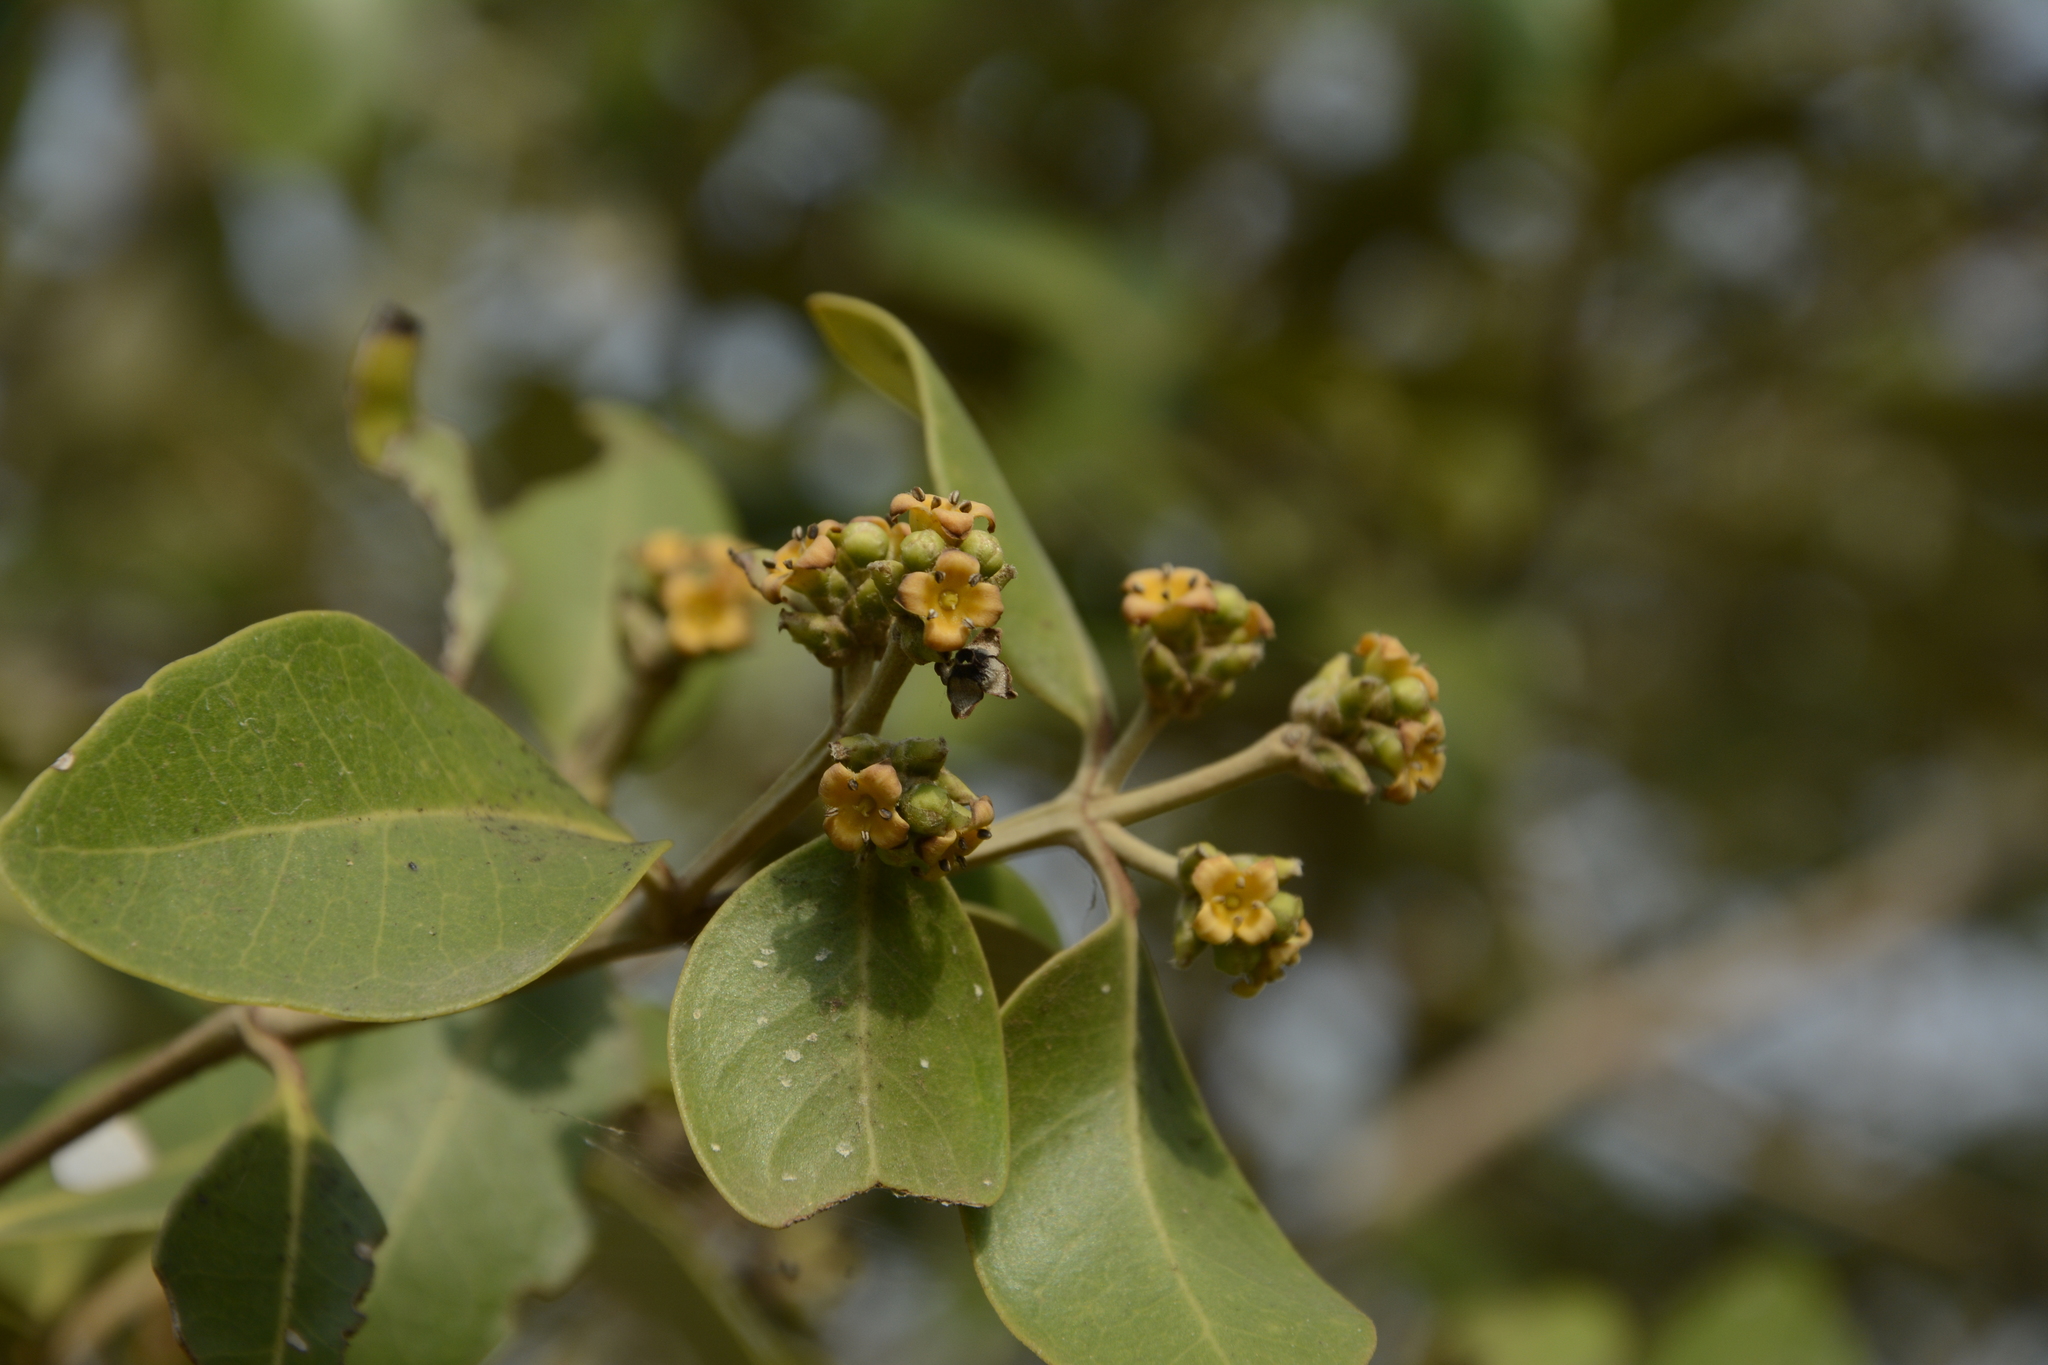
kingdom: Plantae
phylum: Tracheophyta
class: Magnoliopsida
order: Lamiales
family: Acanthaceae
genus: Avicennia
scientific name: Avicennia marina
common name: Gray mangrove
